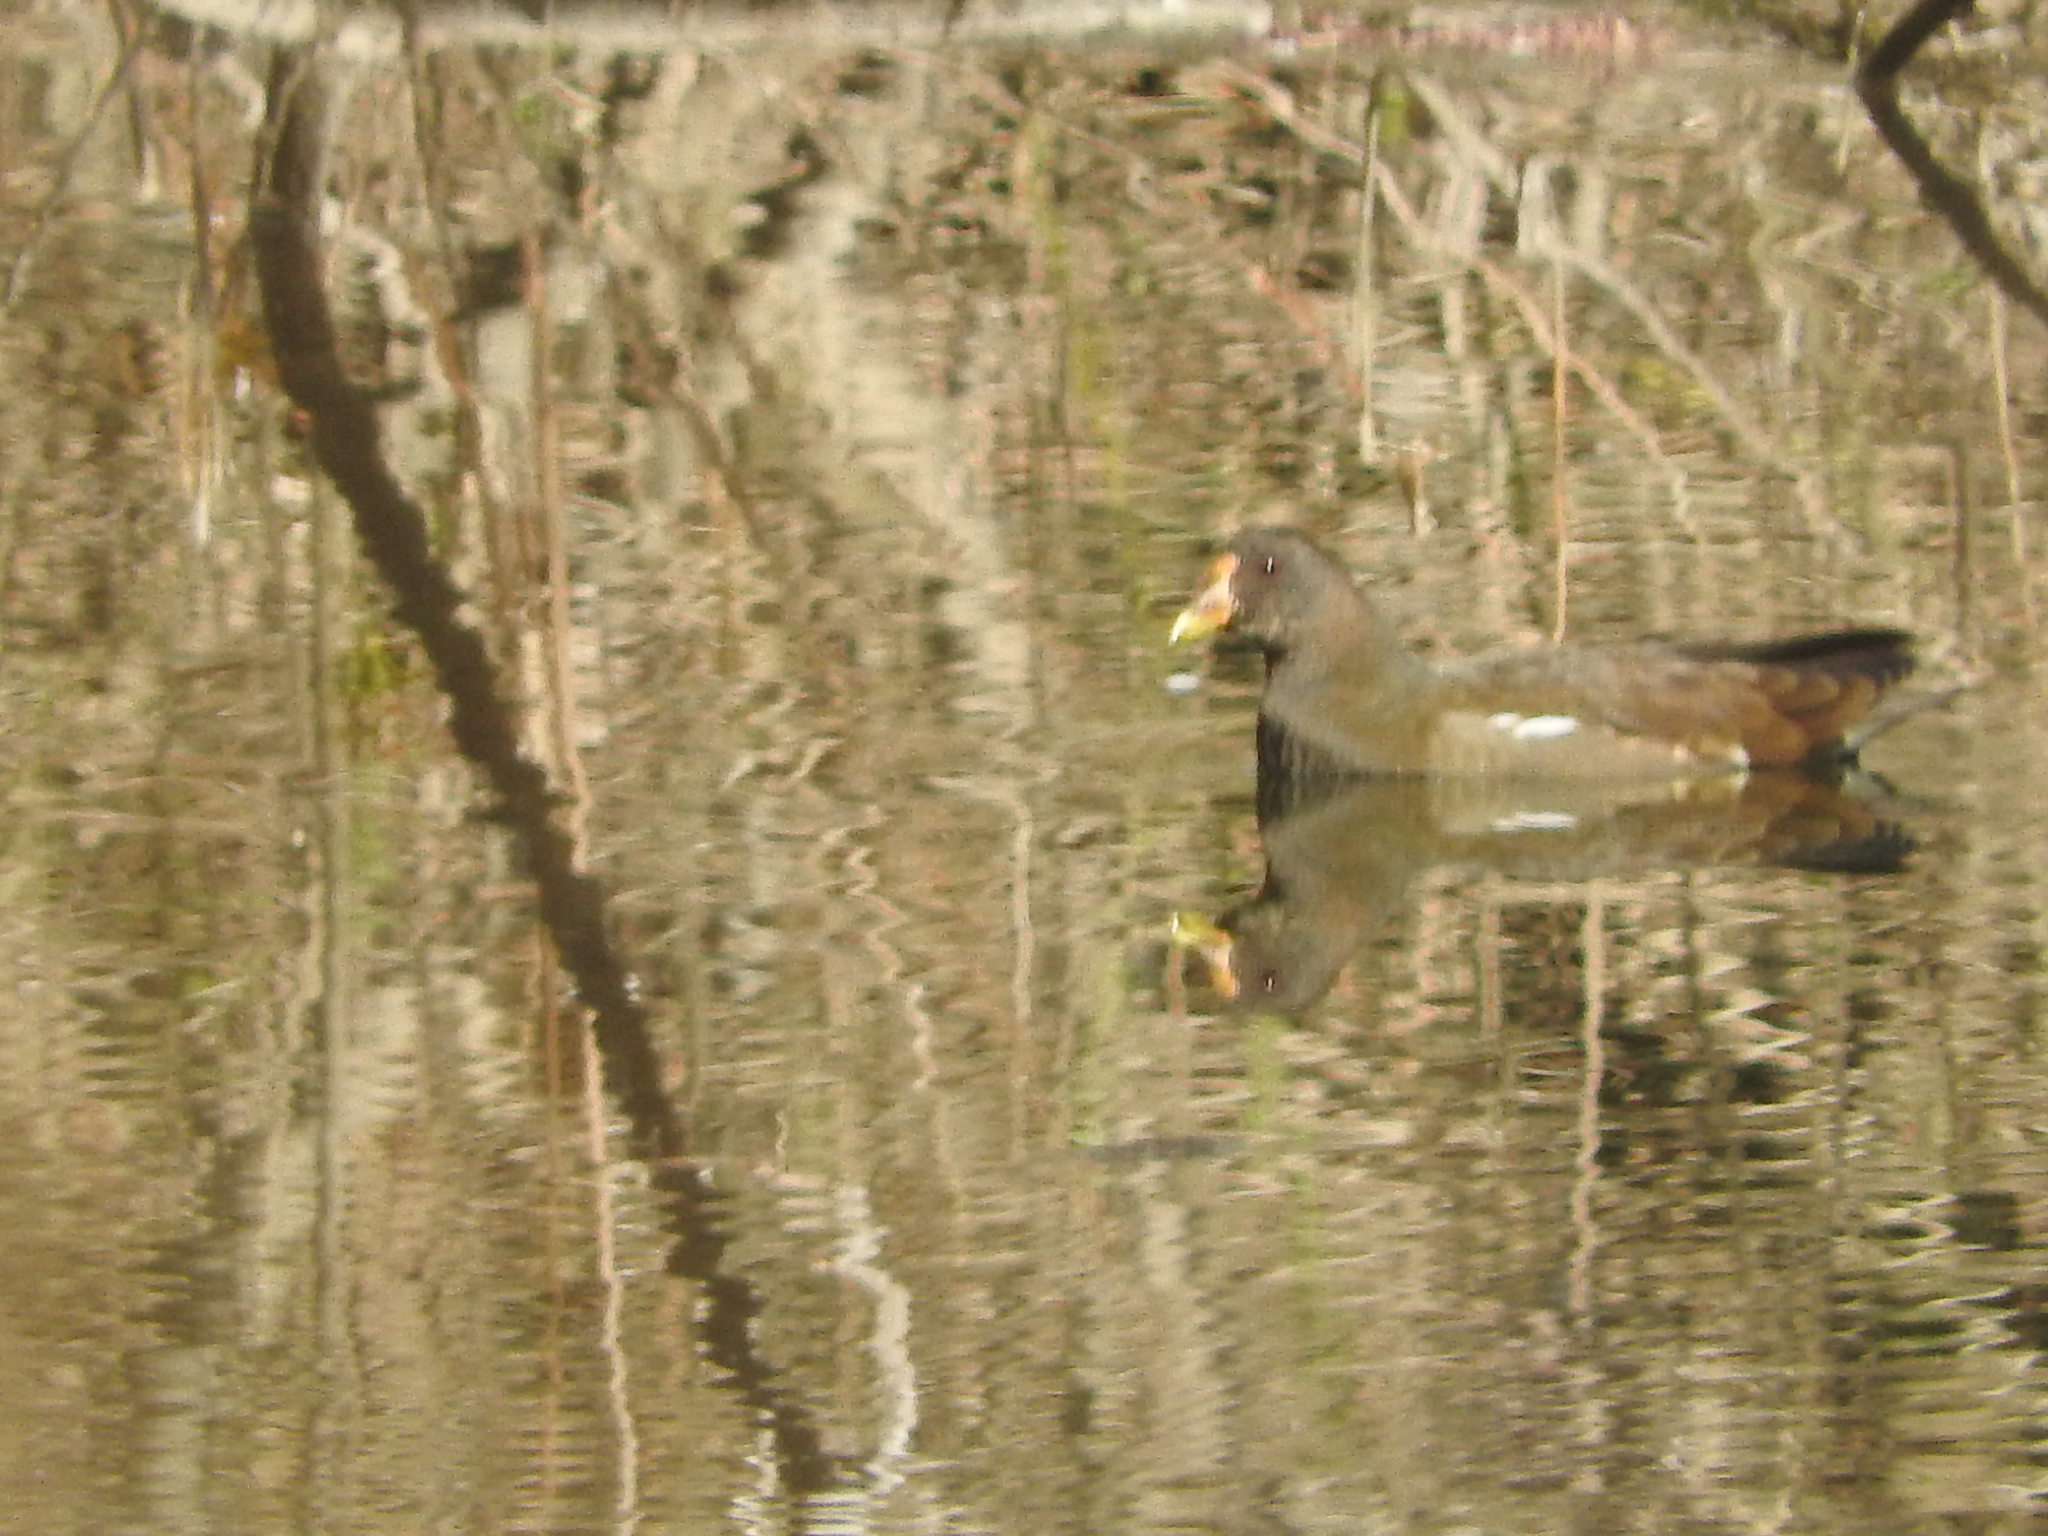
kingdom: Animalia
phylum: Chordata
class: Aves
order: Gruiformes
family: Rallidae
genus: Gallinula
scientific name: Gallinula chloropus
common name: Common moorhen
